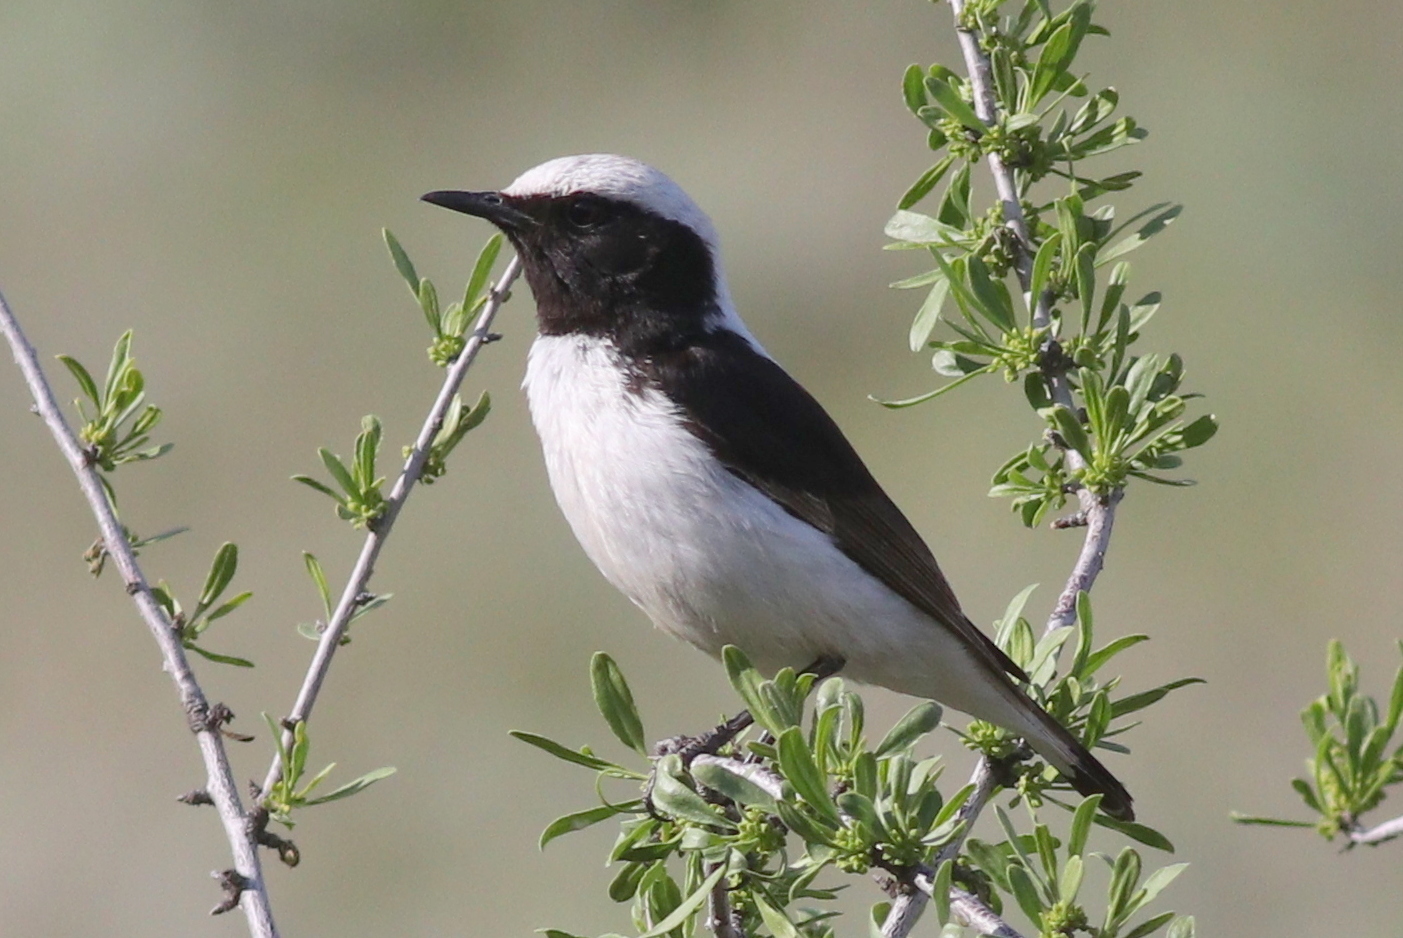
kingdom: Animalia
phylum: Chordata
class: Aves
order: Passeriformes
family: Muscicapidae
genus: Oenanthe
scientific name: Oenanthe finschii
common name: Finsch's wheatear
